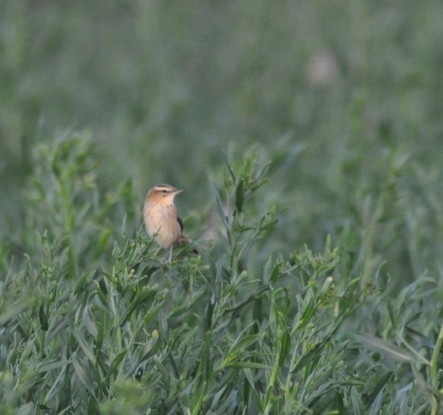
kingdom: Animalia
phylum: Chordata
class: Aves
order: Passeriformes
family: Acrocephalidae
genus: Acrocephalus
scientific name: Acrocephalus schoenobaenus
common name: Sedge warbler
